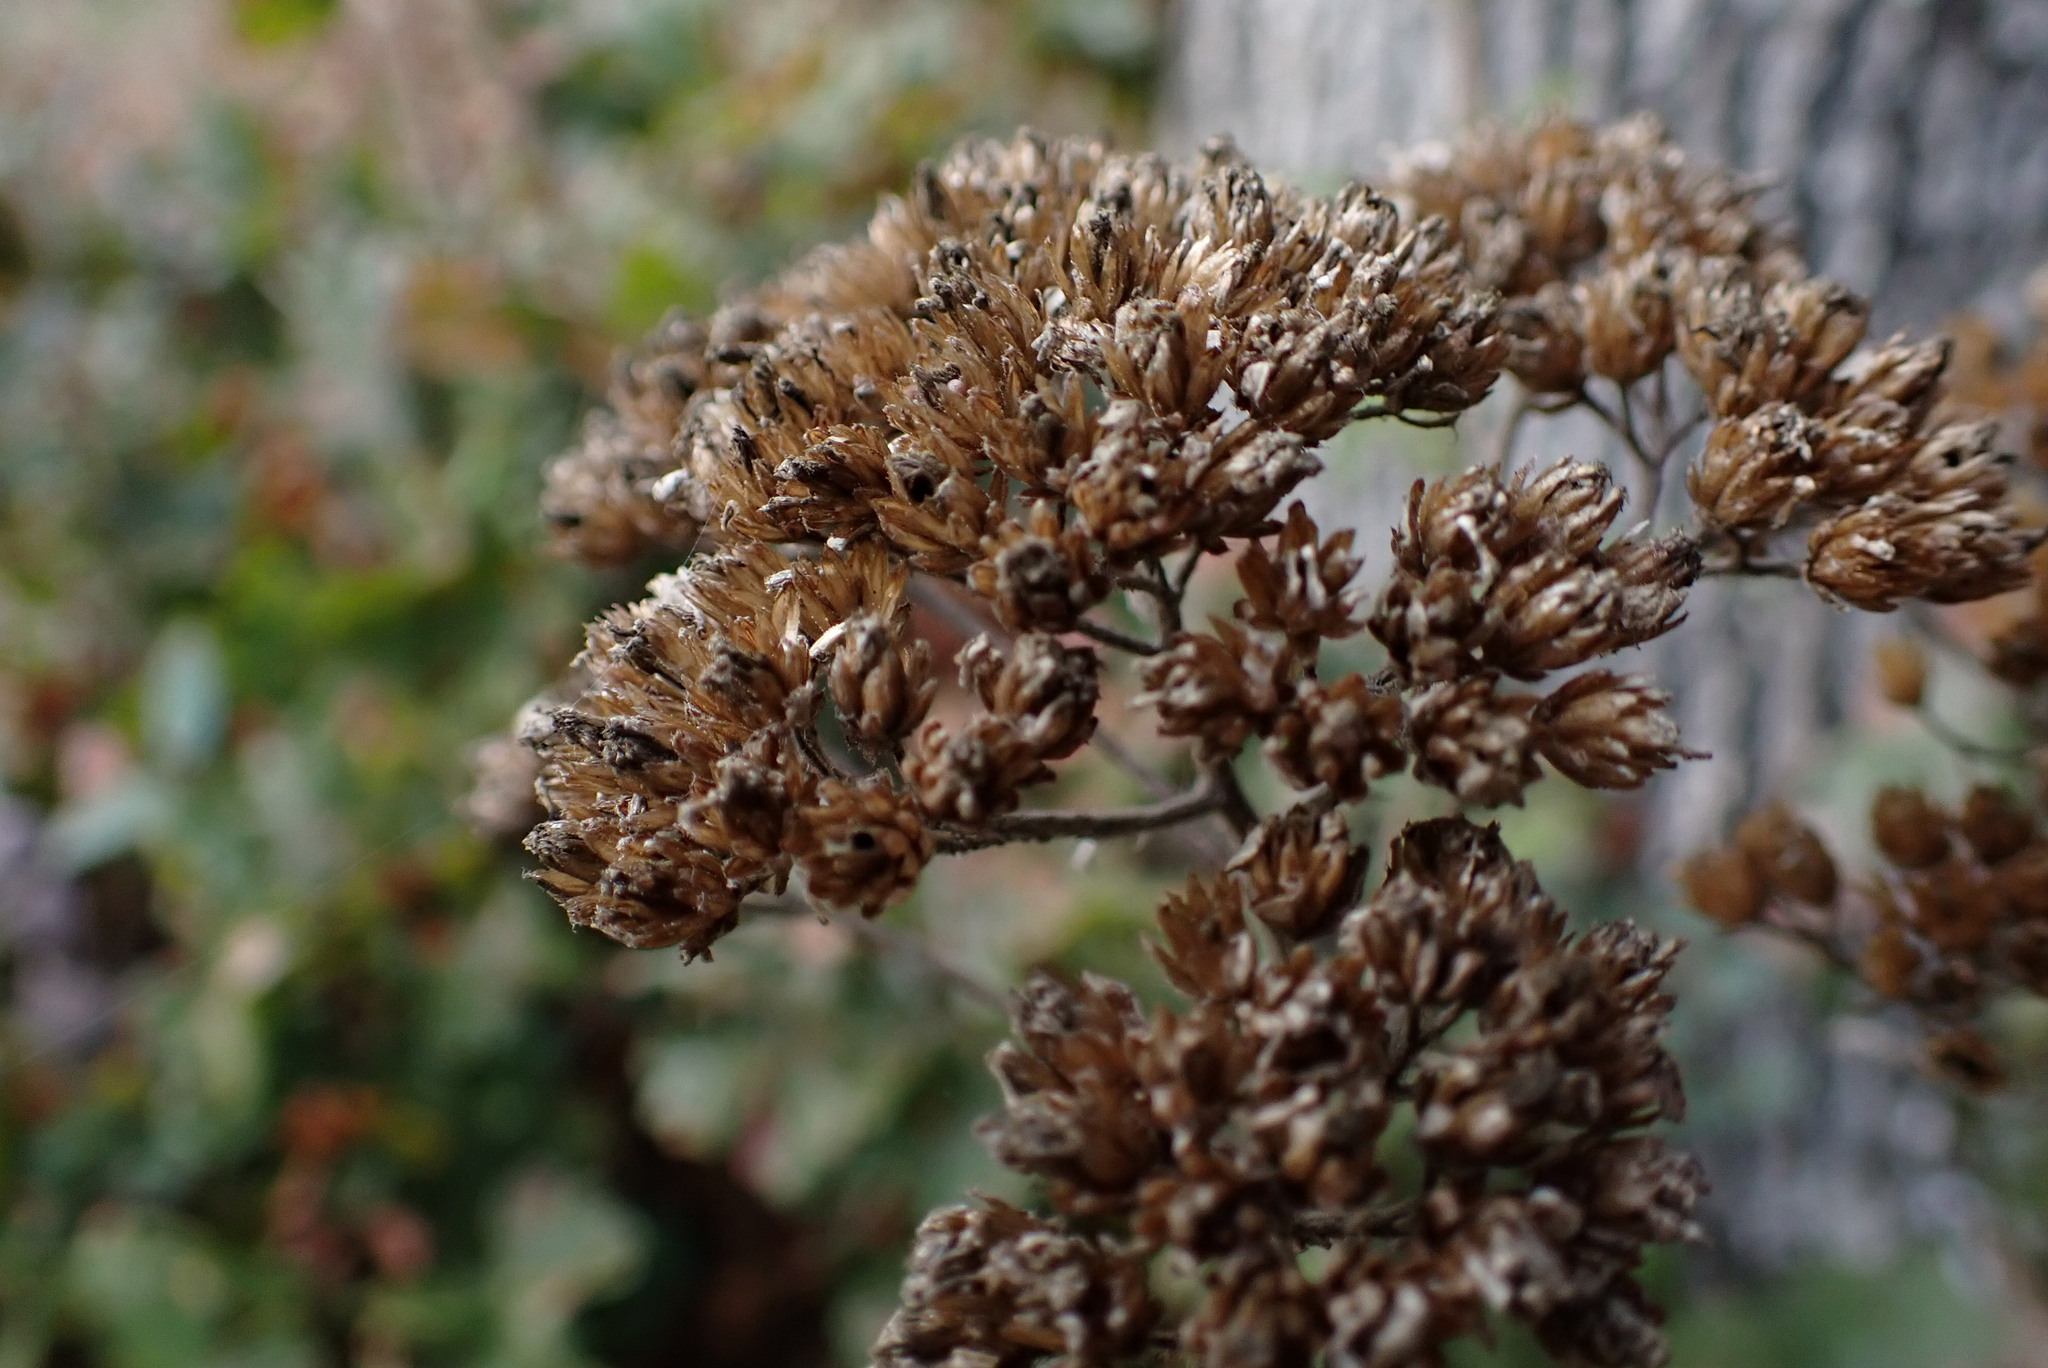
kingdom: Plantae
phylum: Tracheophyta
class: Magnoliopsida
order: Asterales
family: Asteraceae
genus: Achillea
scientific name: Achillea millefolium
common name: Yarrow
